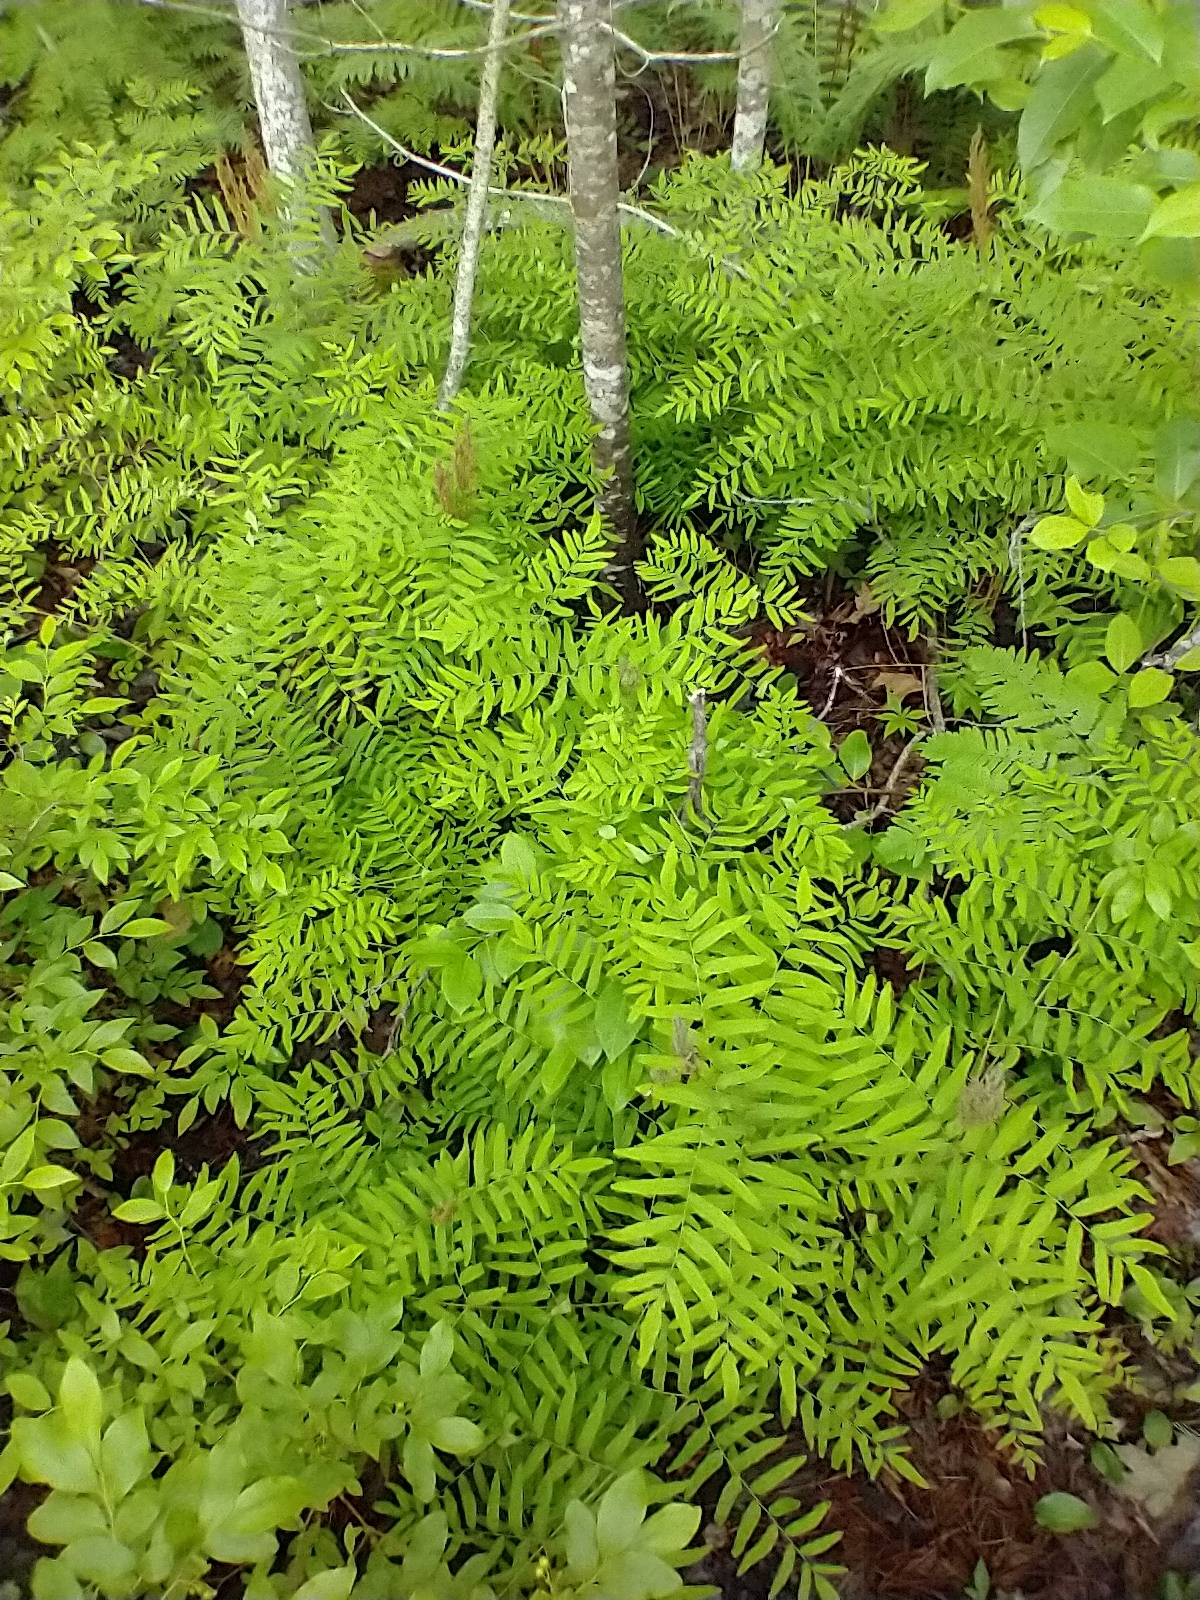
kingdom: Plantae
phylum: Tracheophyta
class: Polypodiopsida
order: Osmundales
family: Osmundaceae
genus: Osmunda
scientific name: Osmunda spectabilis
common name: American royal fern
